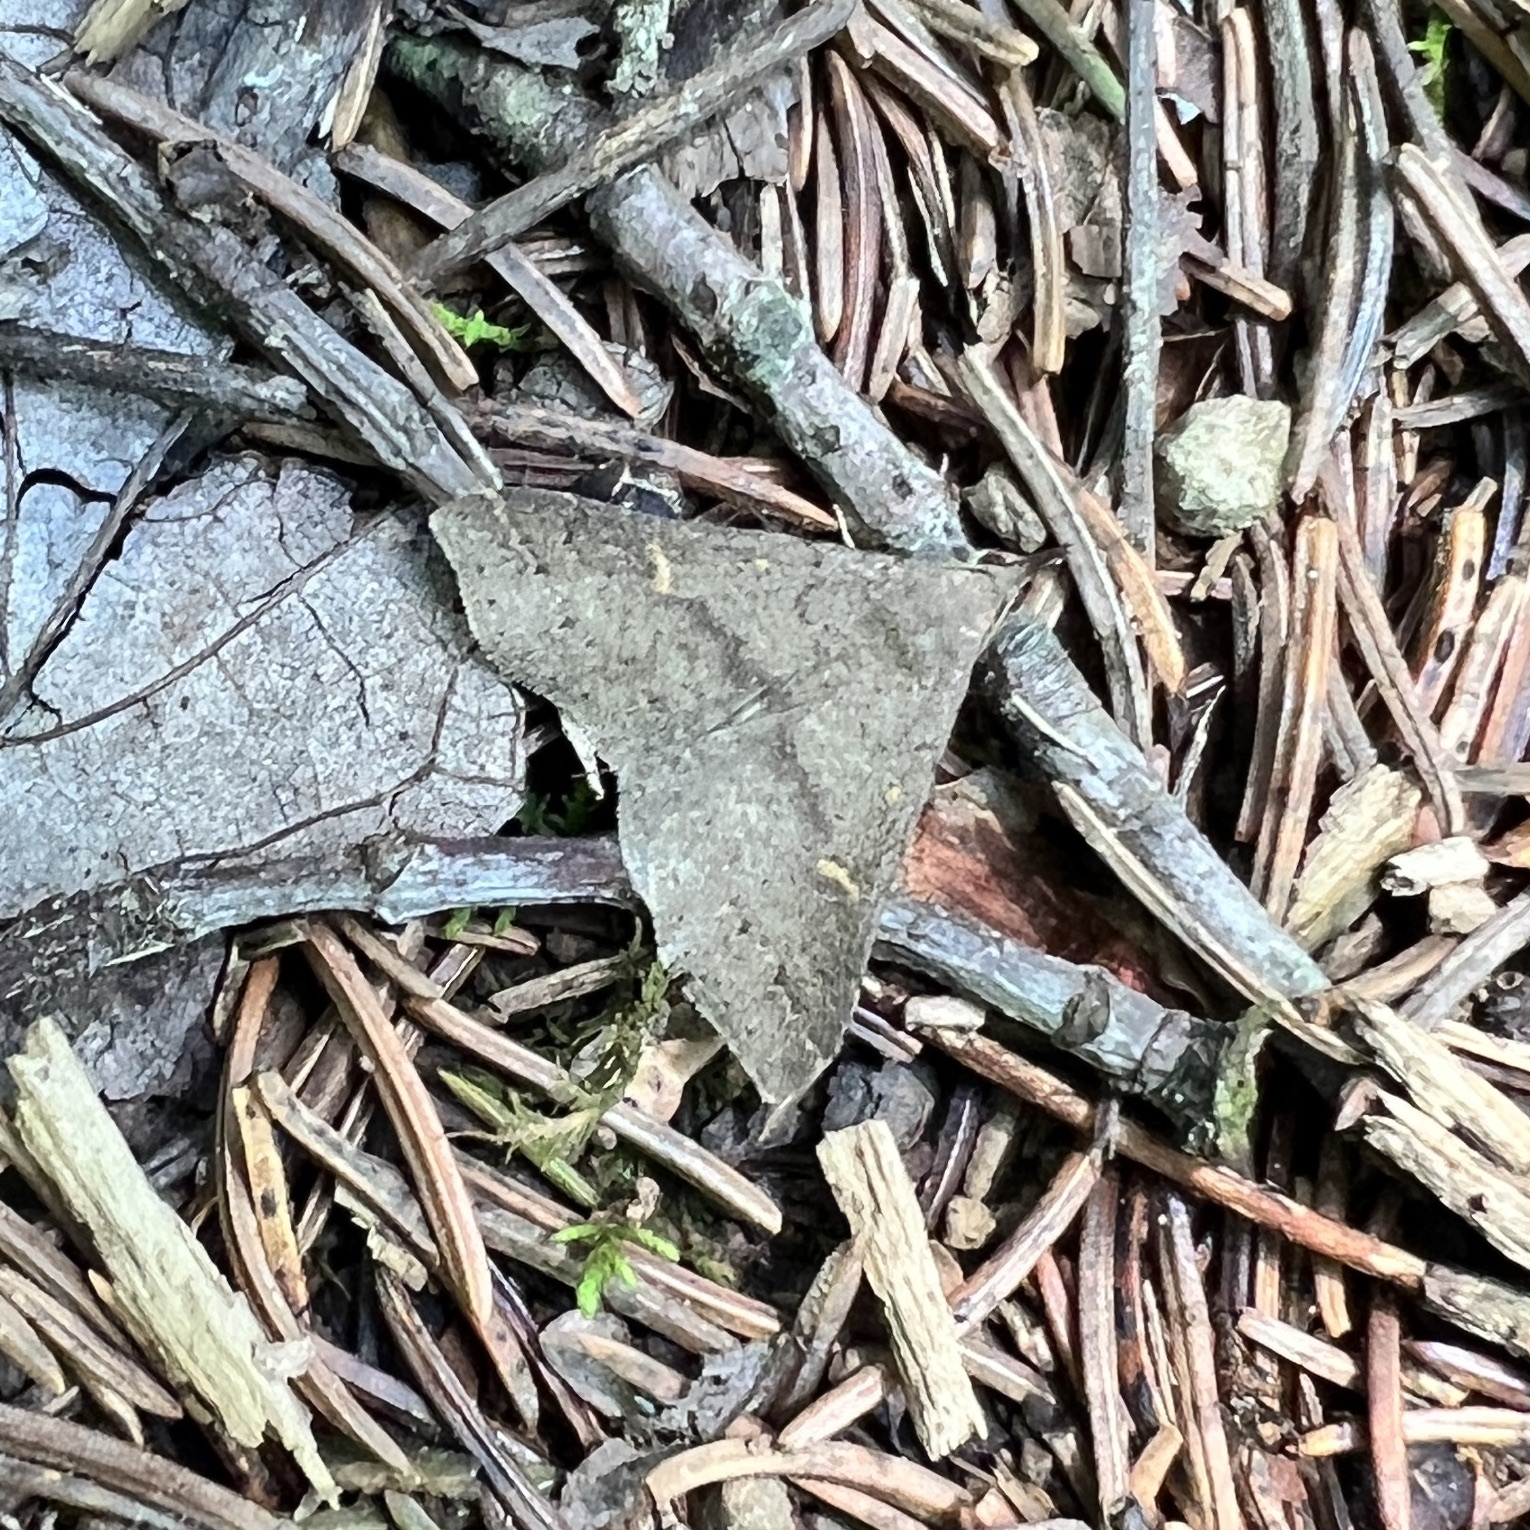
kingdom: Animalia
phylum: Arthropoda
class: Insecta
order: Lepidoptera
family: Erebidae
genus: Renia
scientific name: Renia adspergillus
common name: Speckled renia moth
